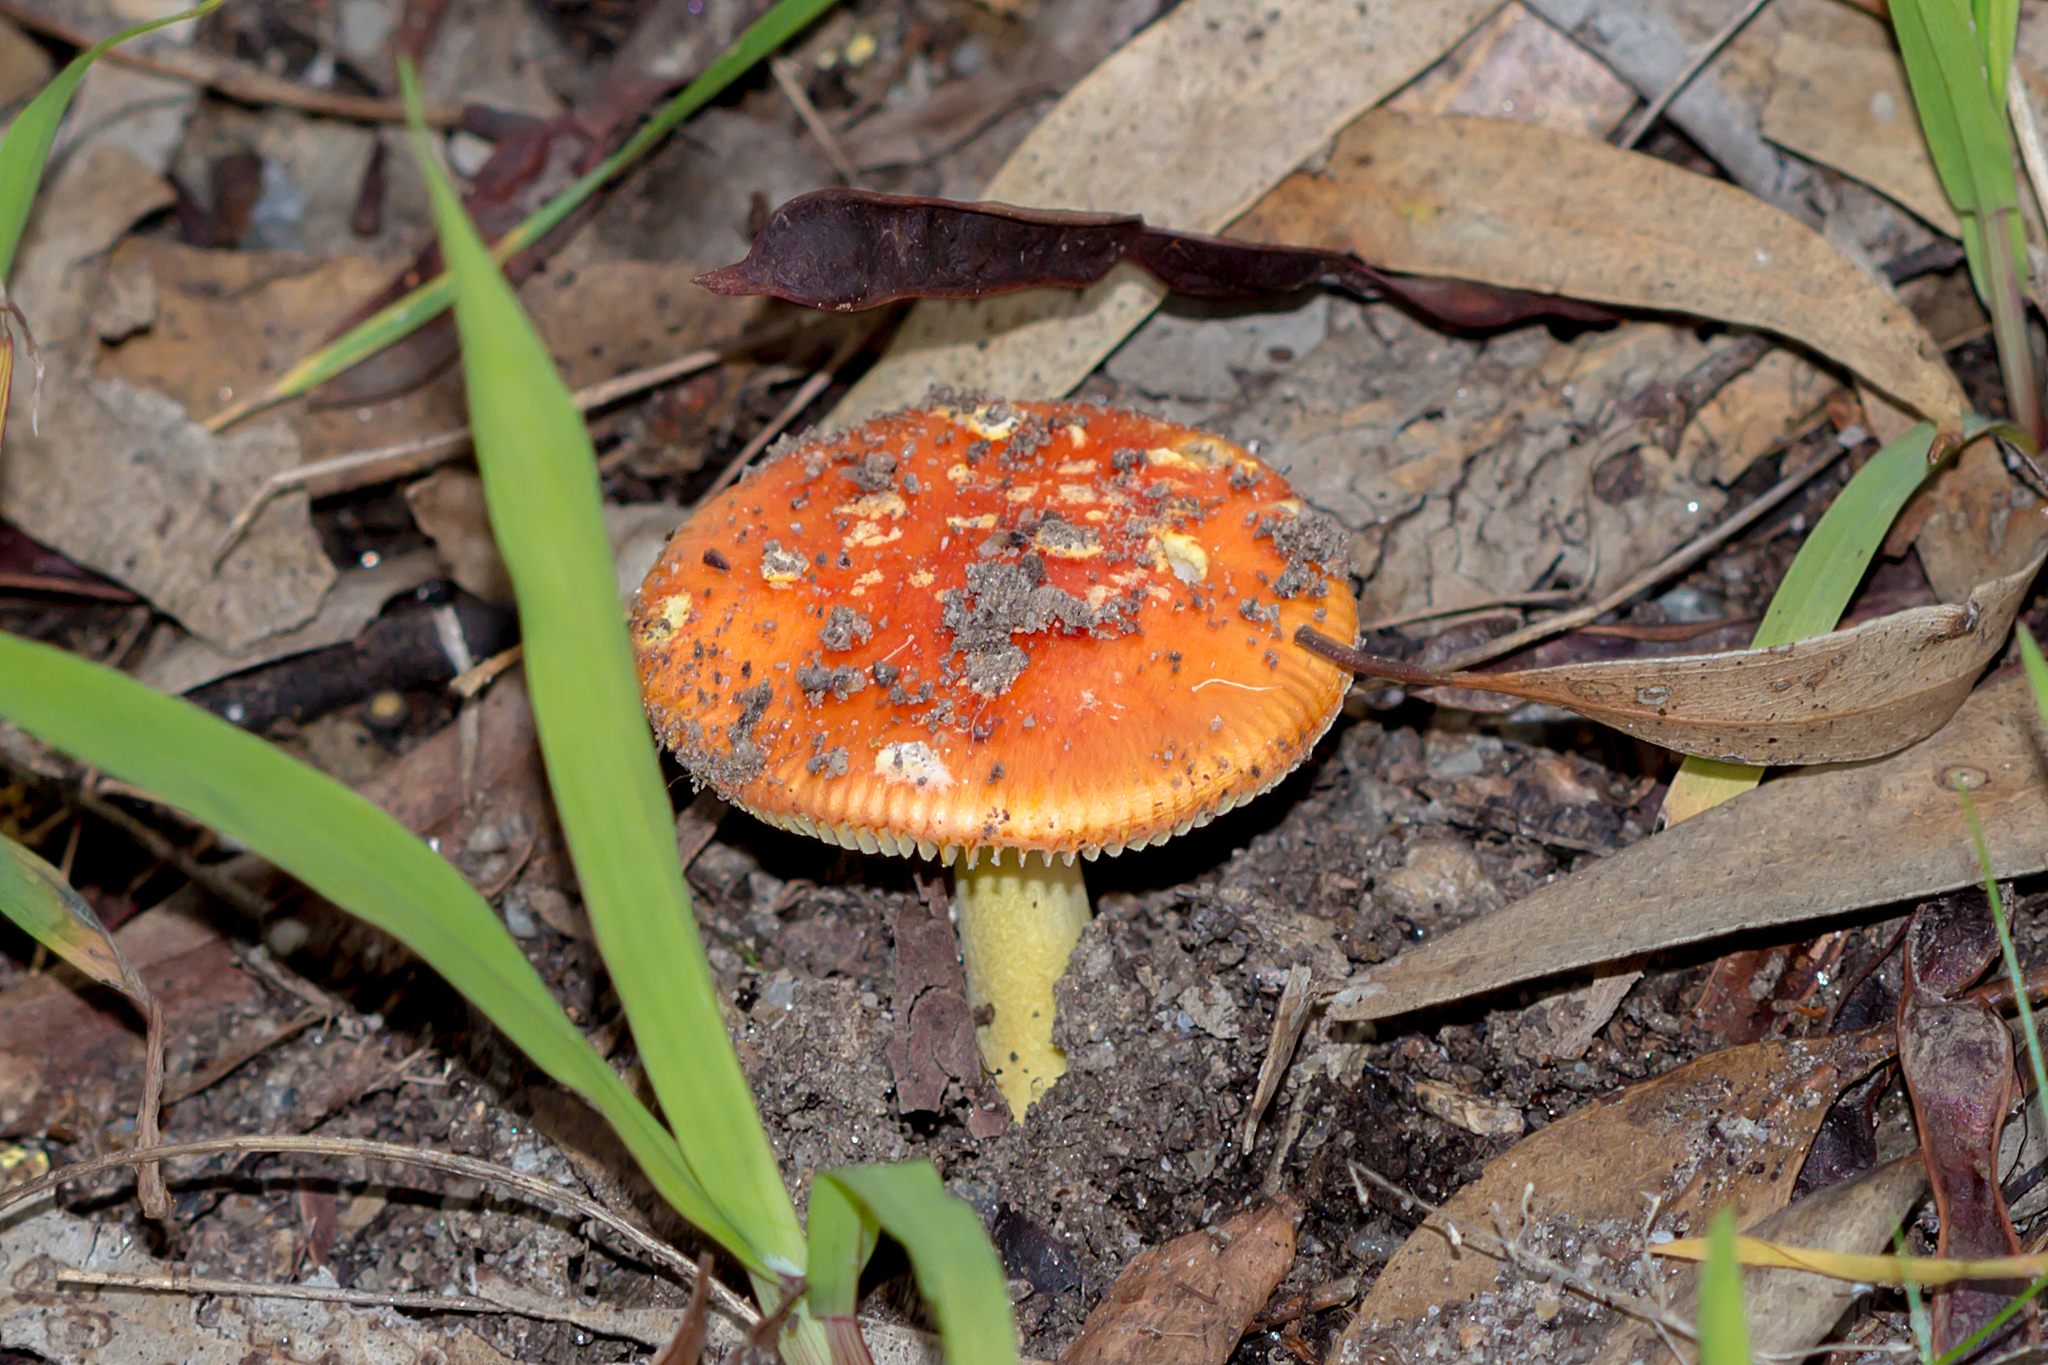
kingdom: Fungi
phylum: Basidiomycota
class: Agaricomycetes
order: Agaricales
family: Amanitaceae
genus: Amanita
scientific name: Amanita xanthocephala
